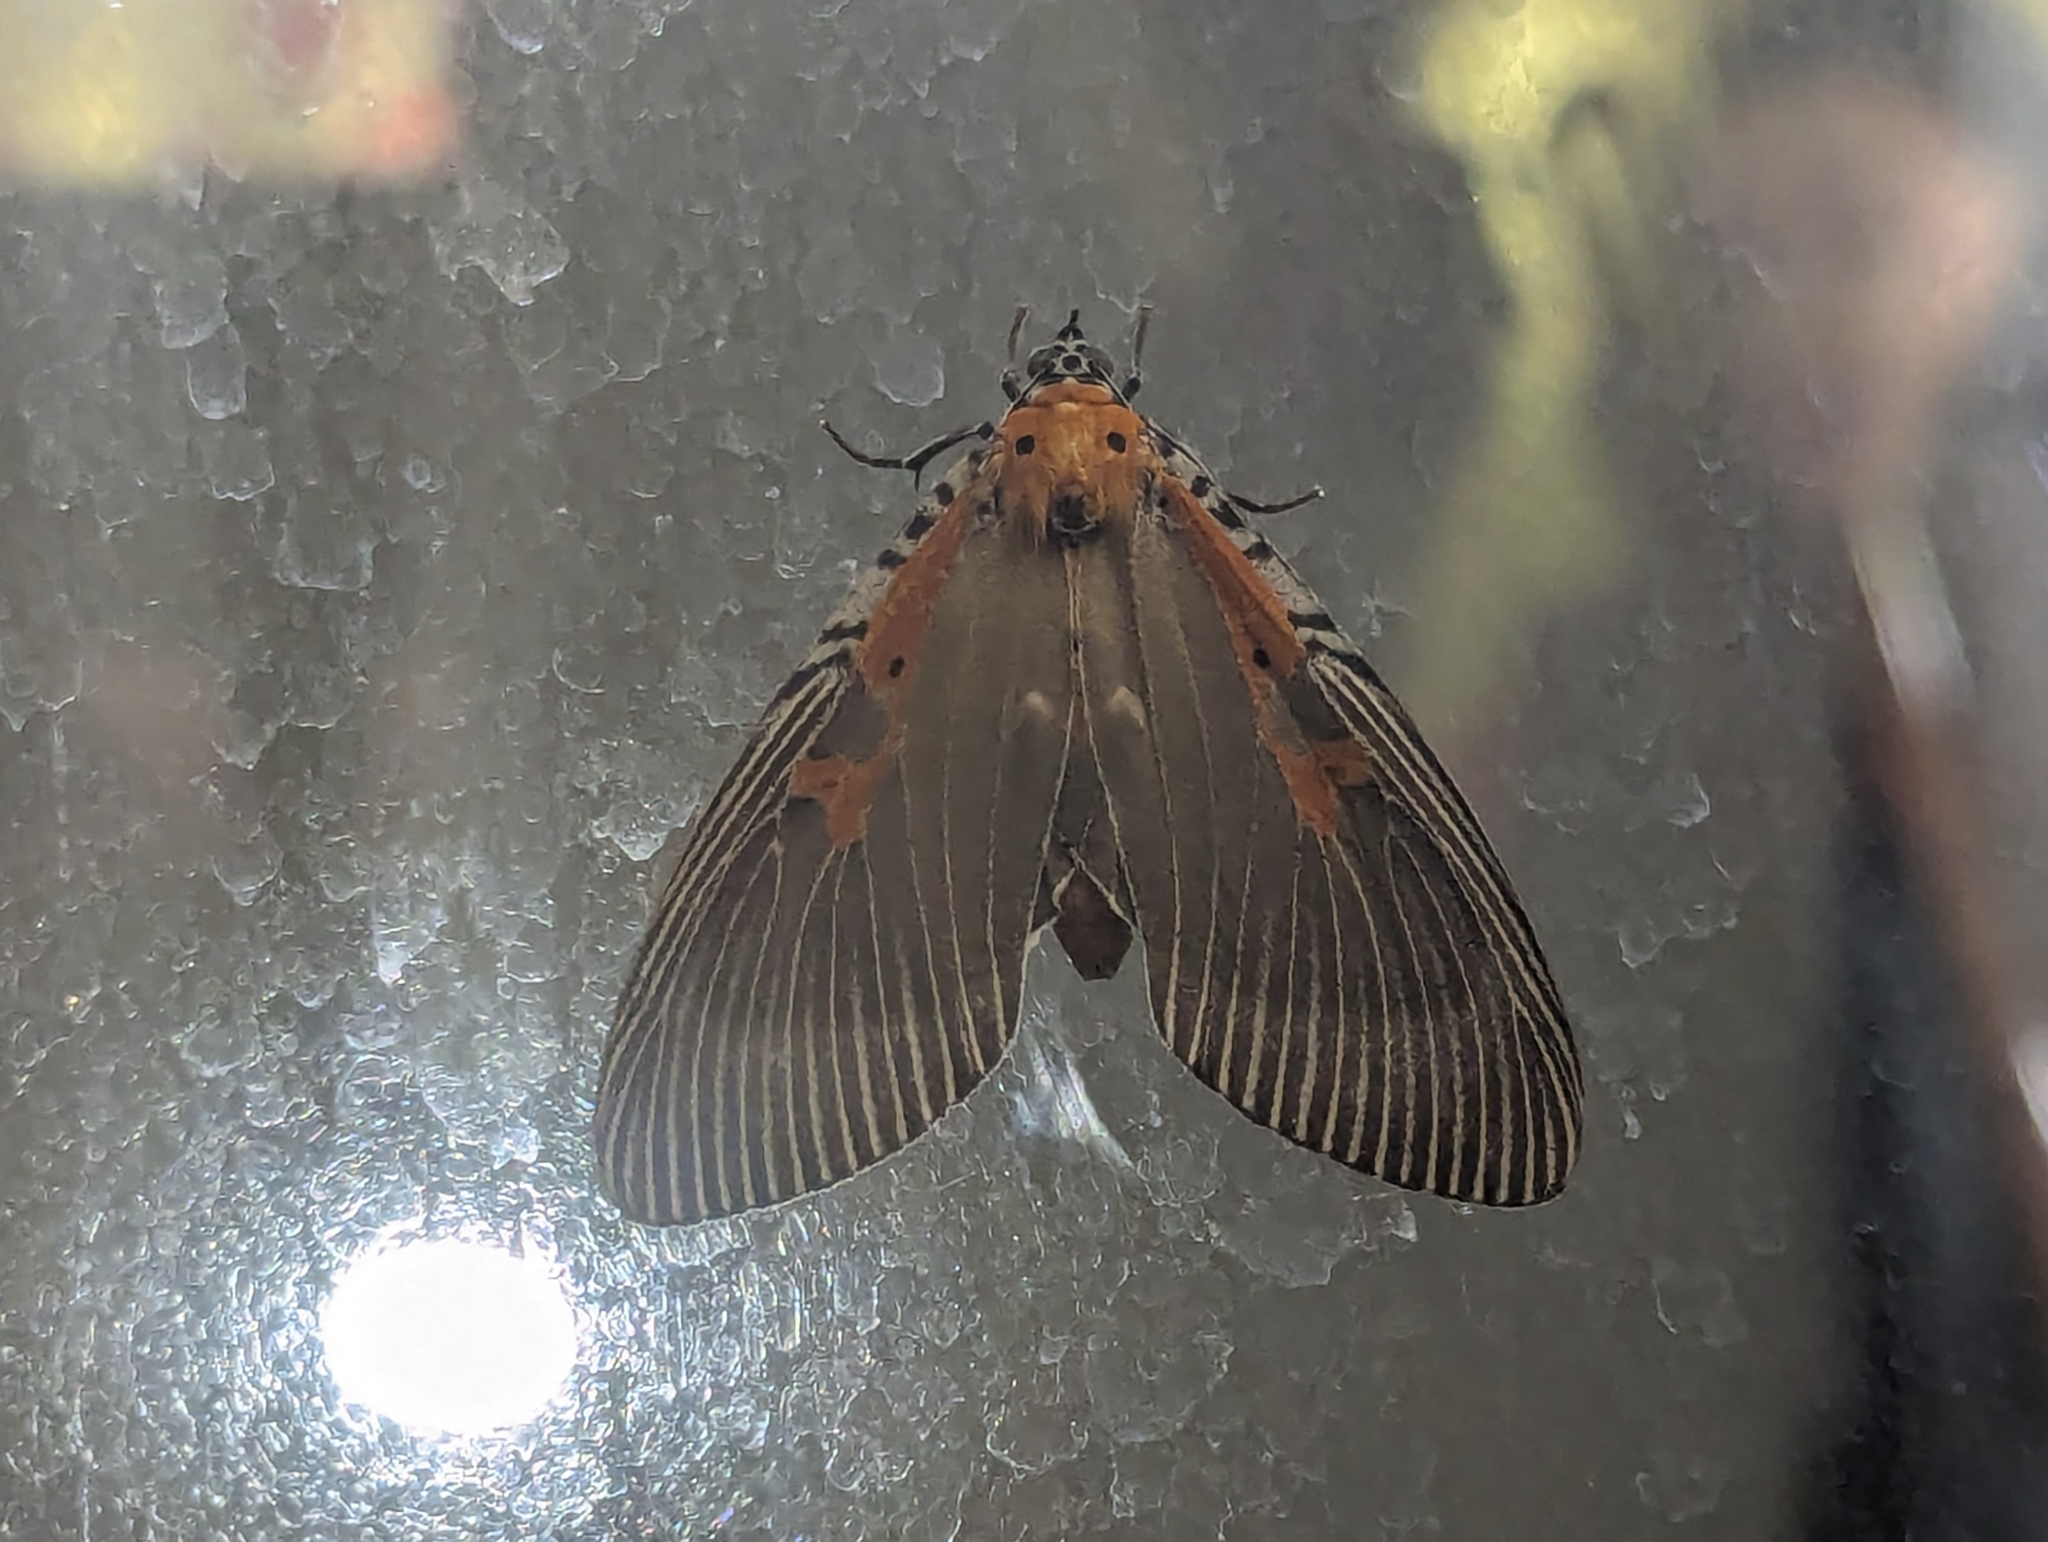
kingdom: Animalia
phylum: Arthropoda
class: Insecta
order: Lepidoptera
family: Erebidae
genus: Euplocia
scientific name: Euplocia membliaria
